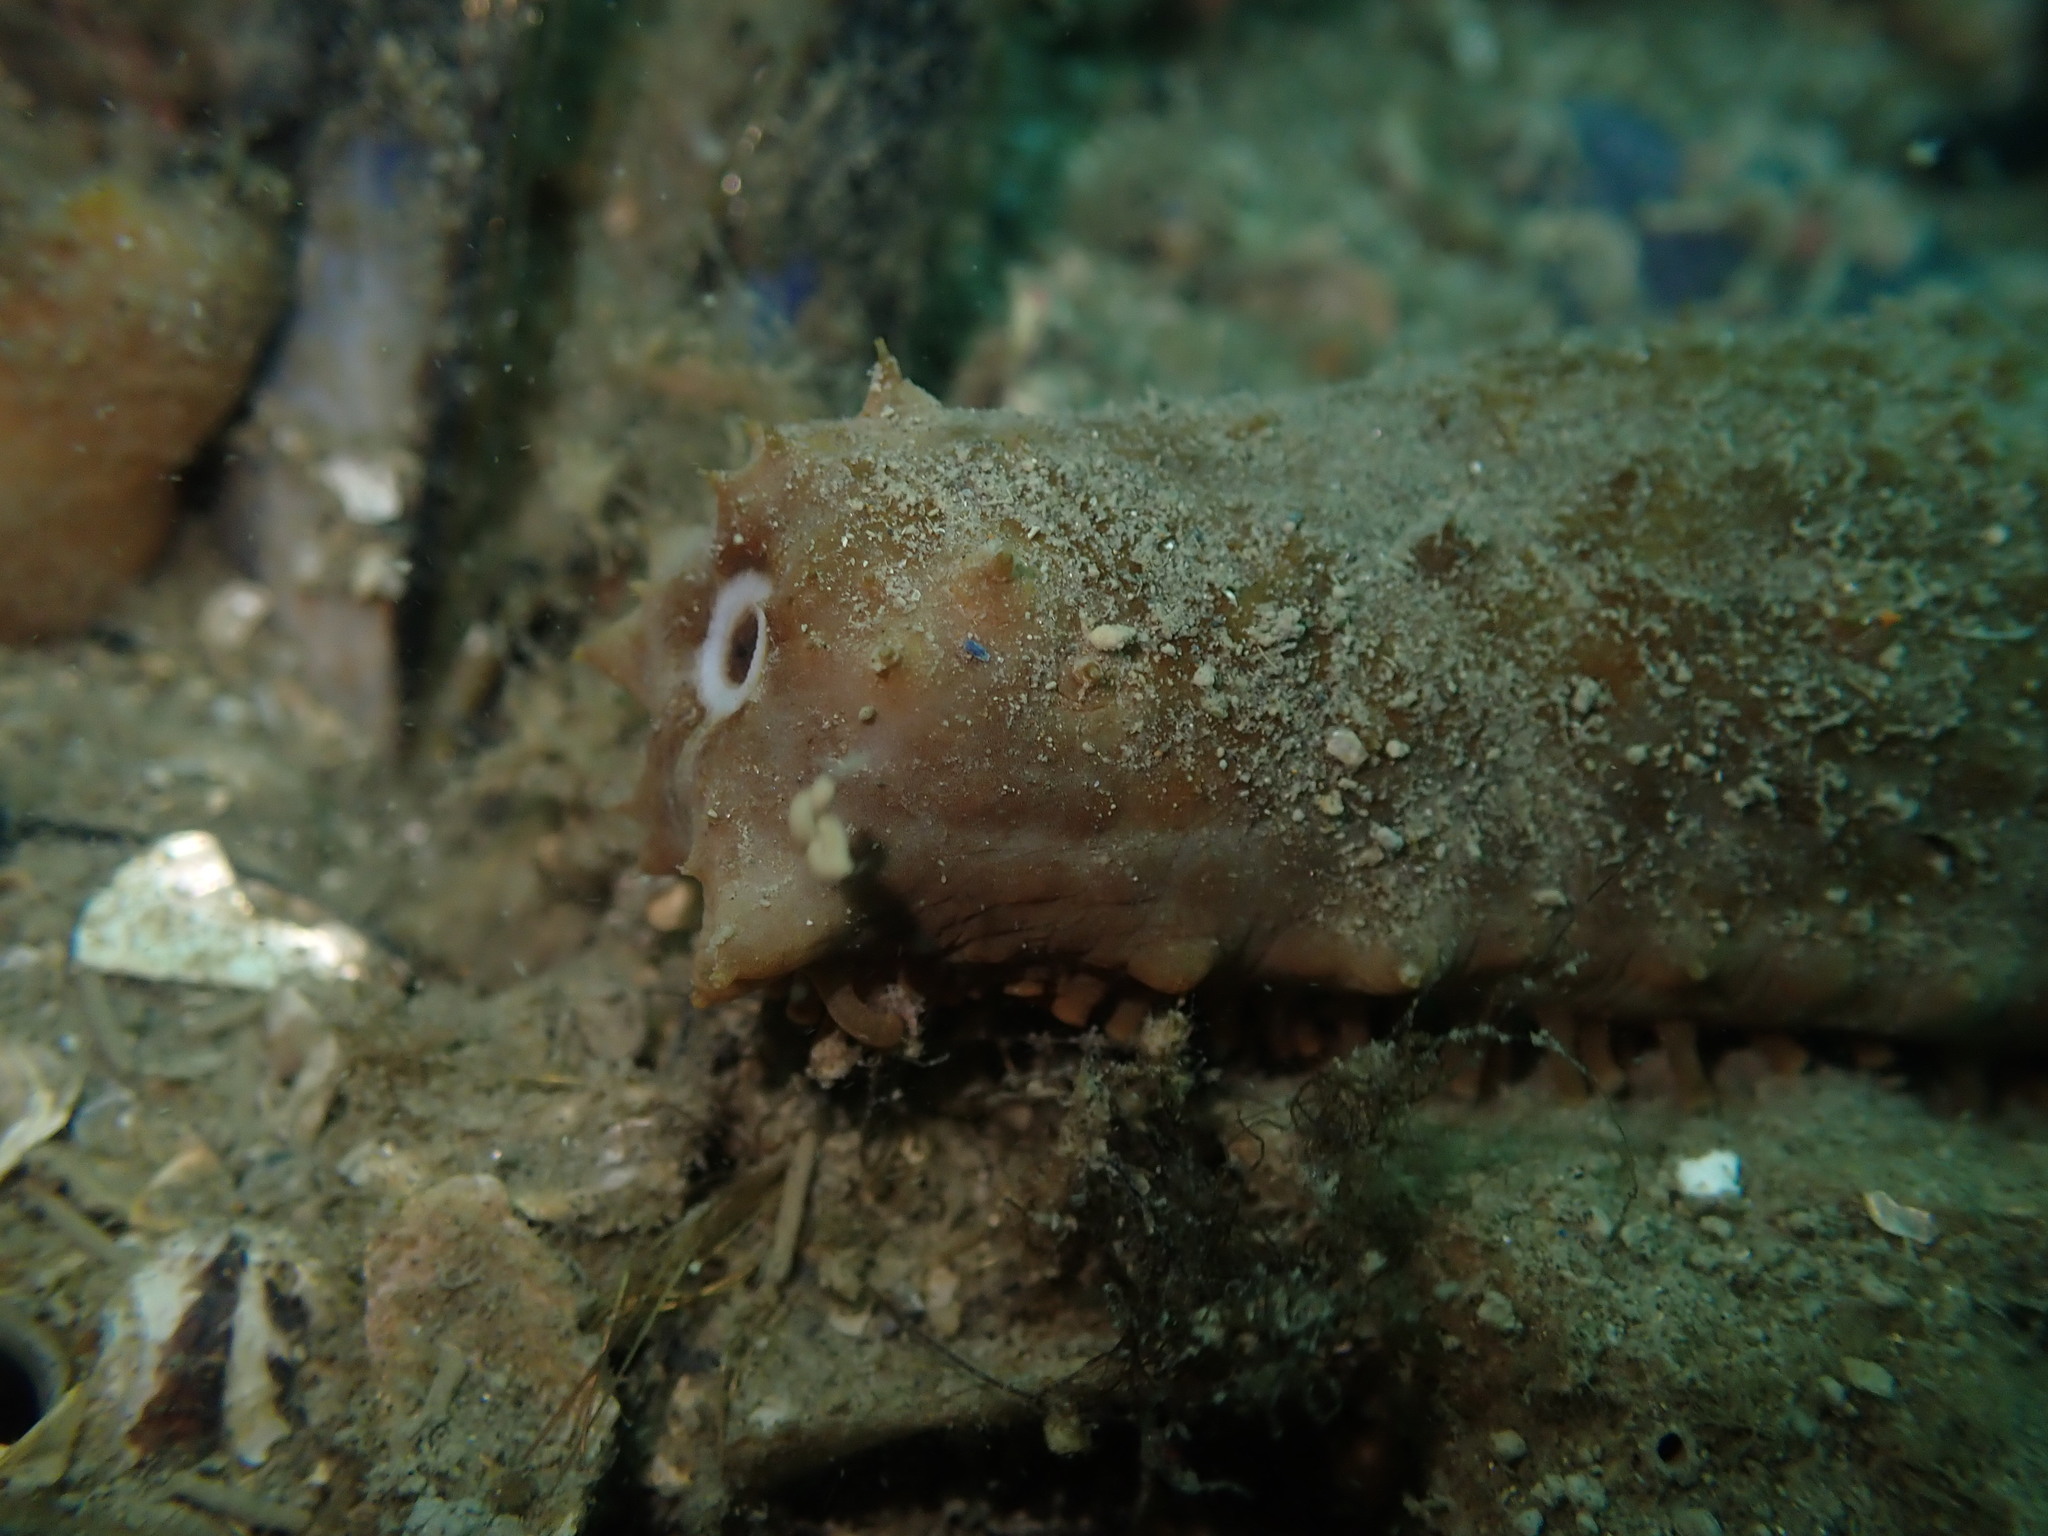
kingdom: Animalia
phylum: Echinodermata
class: Holothuroidea
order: Synallactida
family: Stichopodidae
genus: Australostichopus
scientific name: Australostichopus mollis
